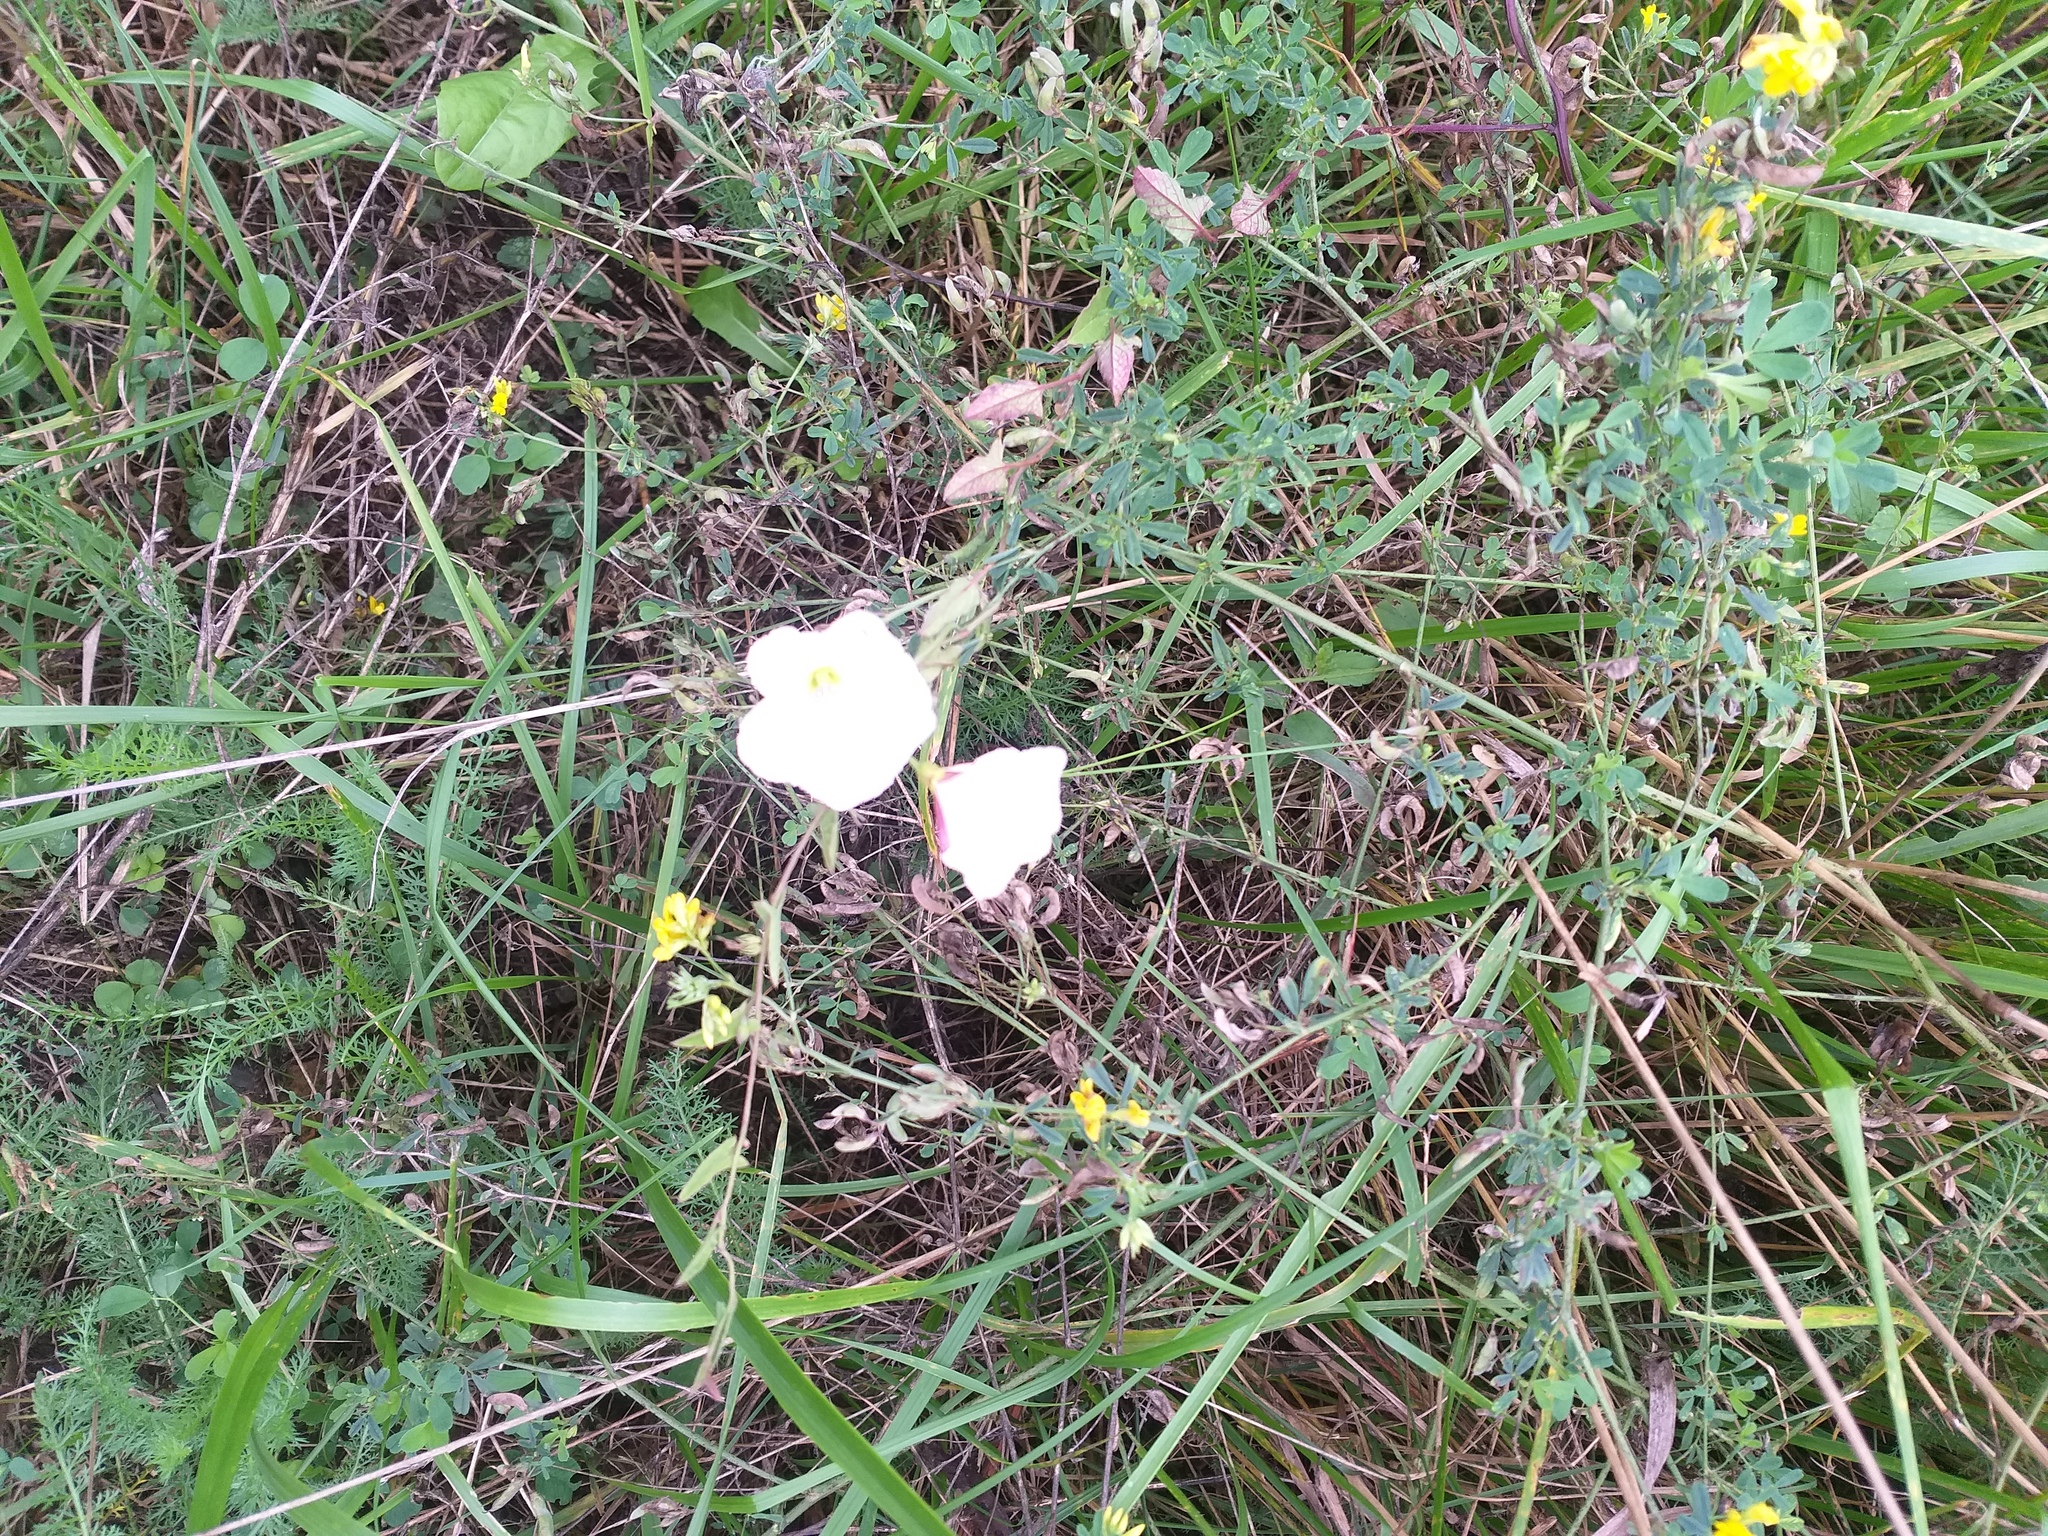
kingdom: Plantae
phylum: Tracheophyta
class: Magnoliopsida
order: Solanales
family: Convolvulaceae
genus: Convolvulus
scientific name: Convolvulus arvensis
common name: Field bindweed
